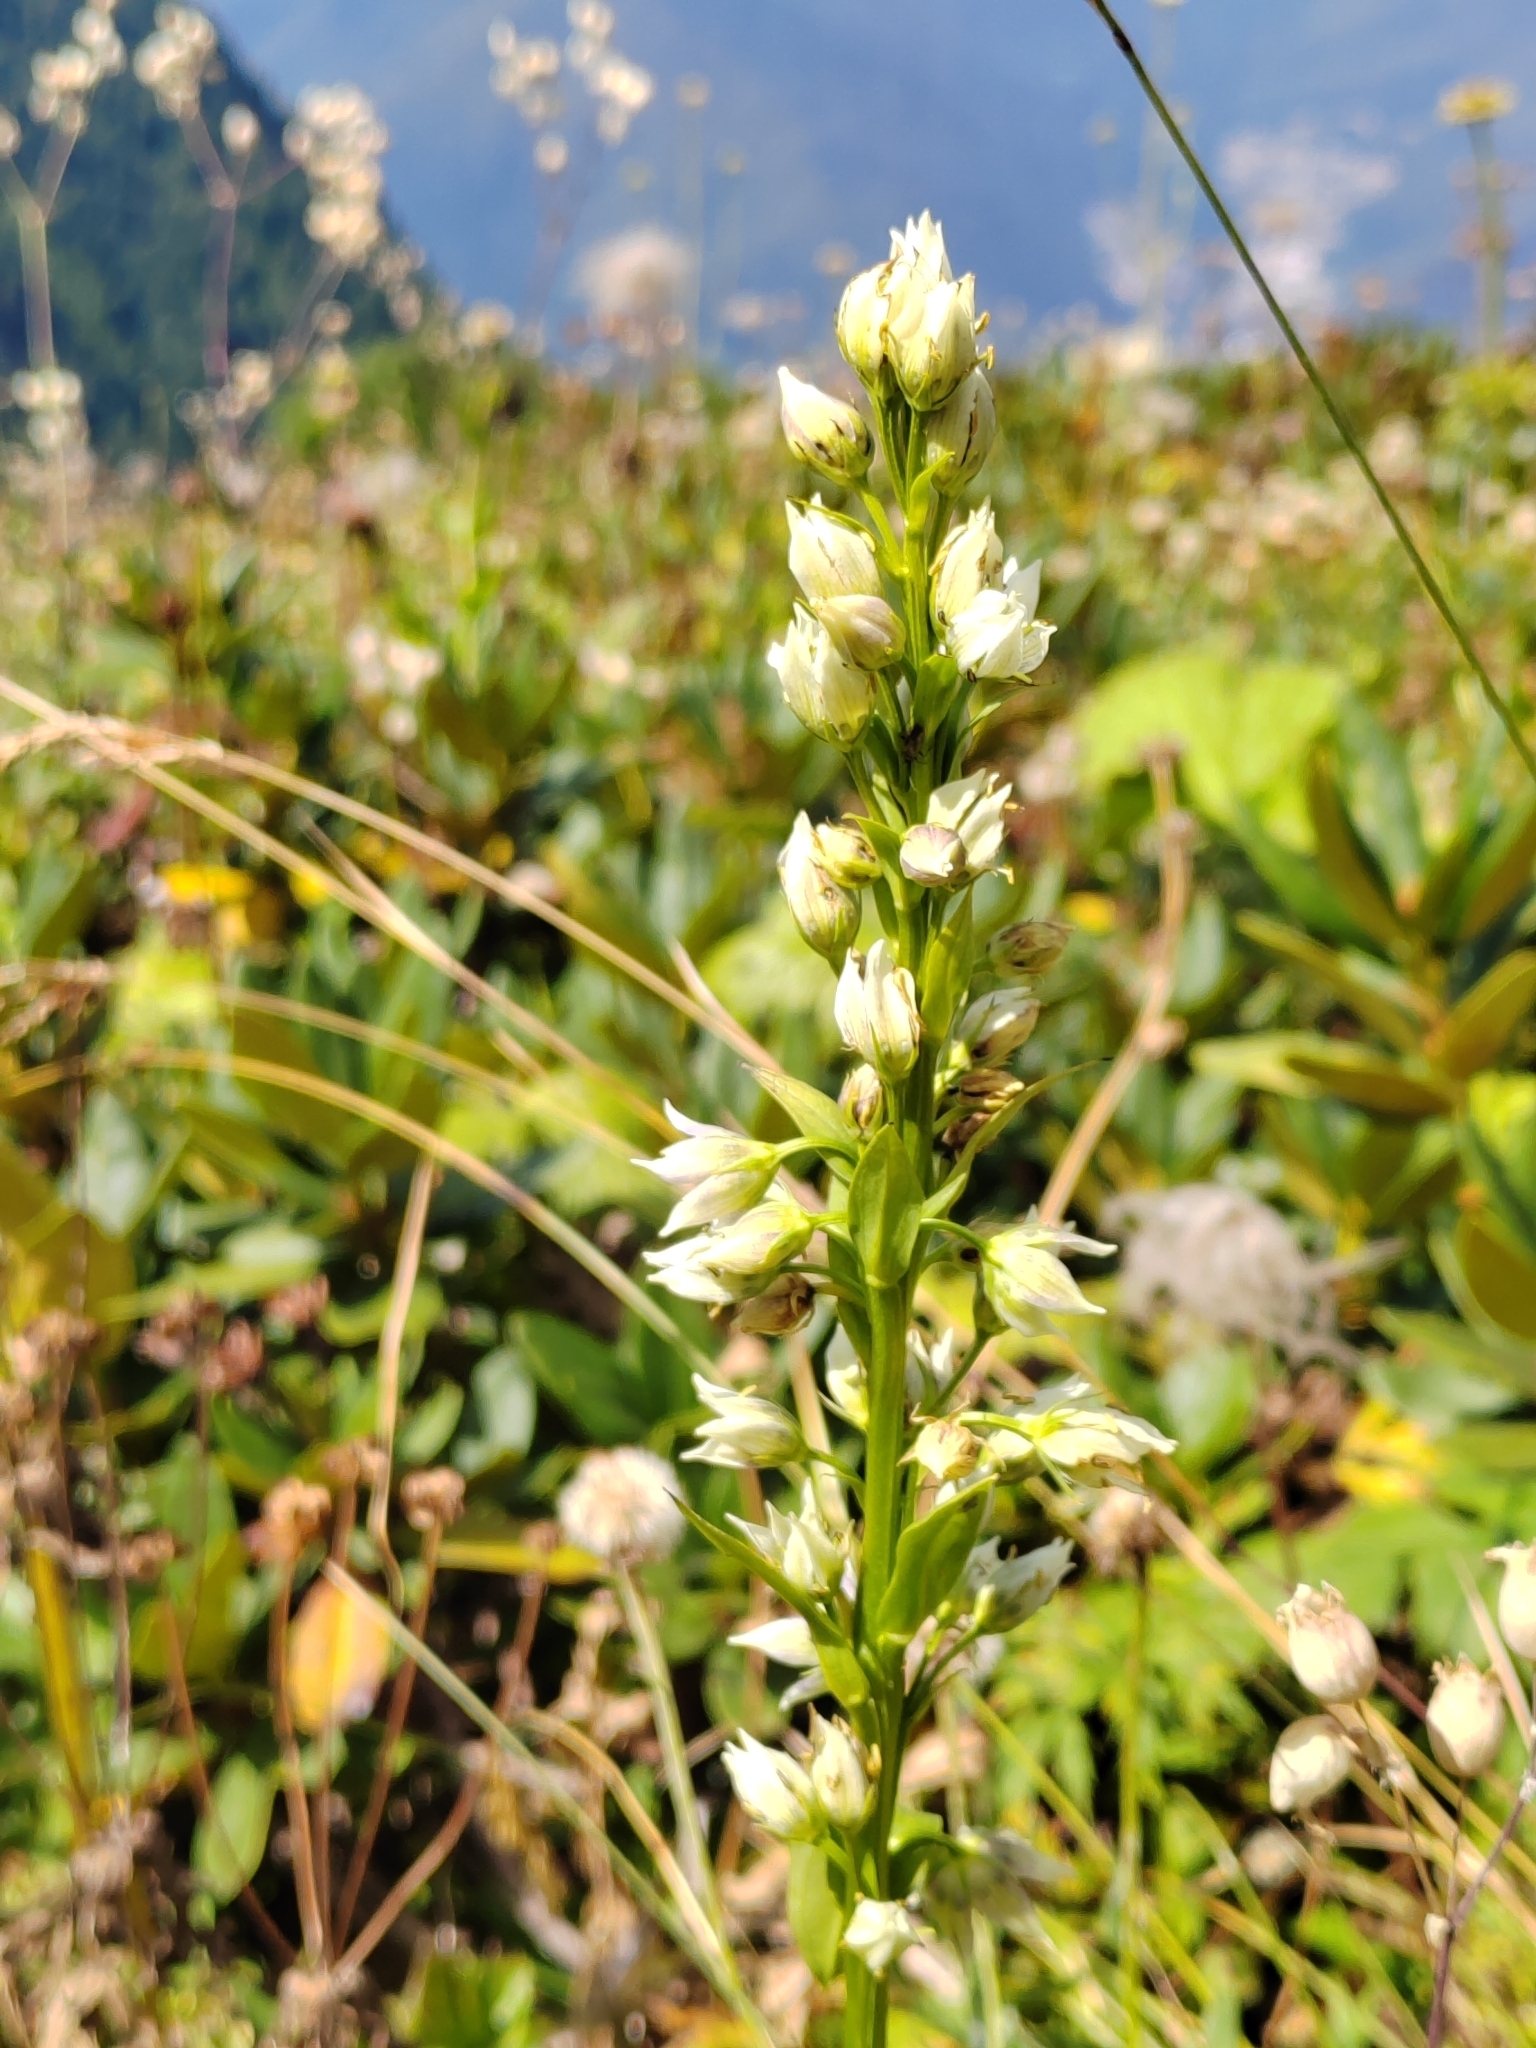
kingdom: Plantae
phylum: Tracheophyta
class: Magnoliopsida
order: Gentianales
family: Gentianaceae
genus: Swertia
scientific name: Swertia iberica
